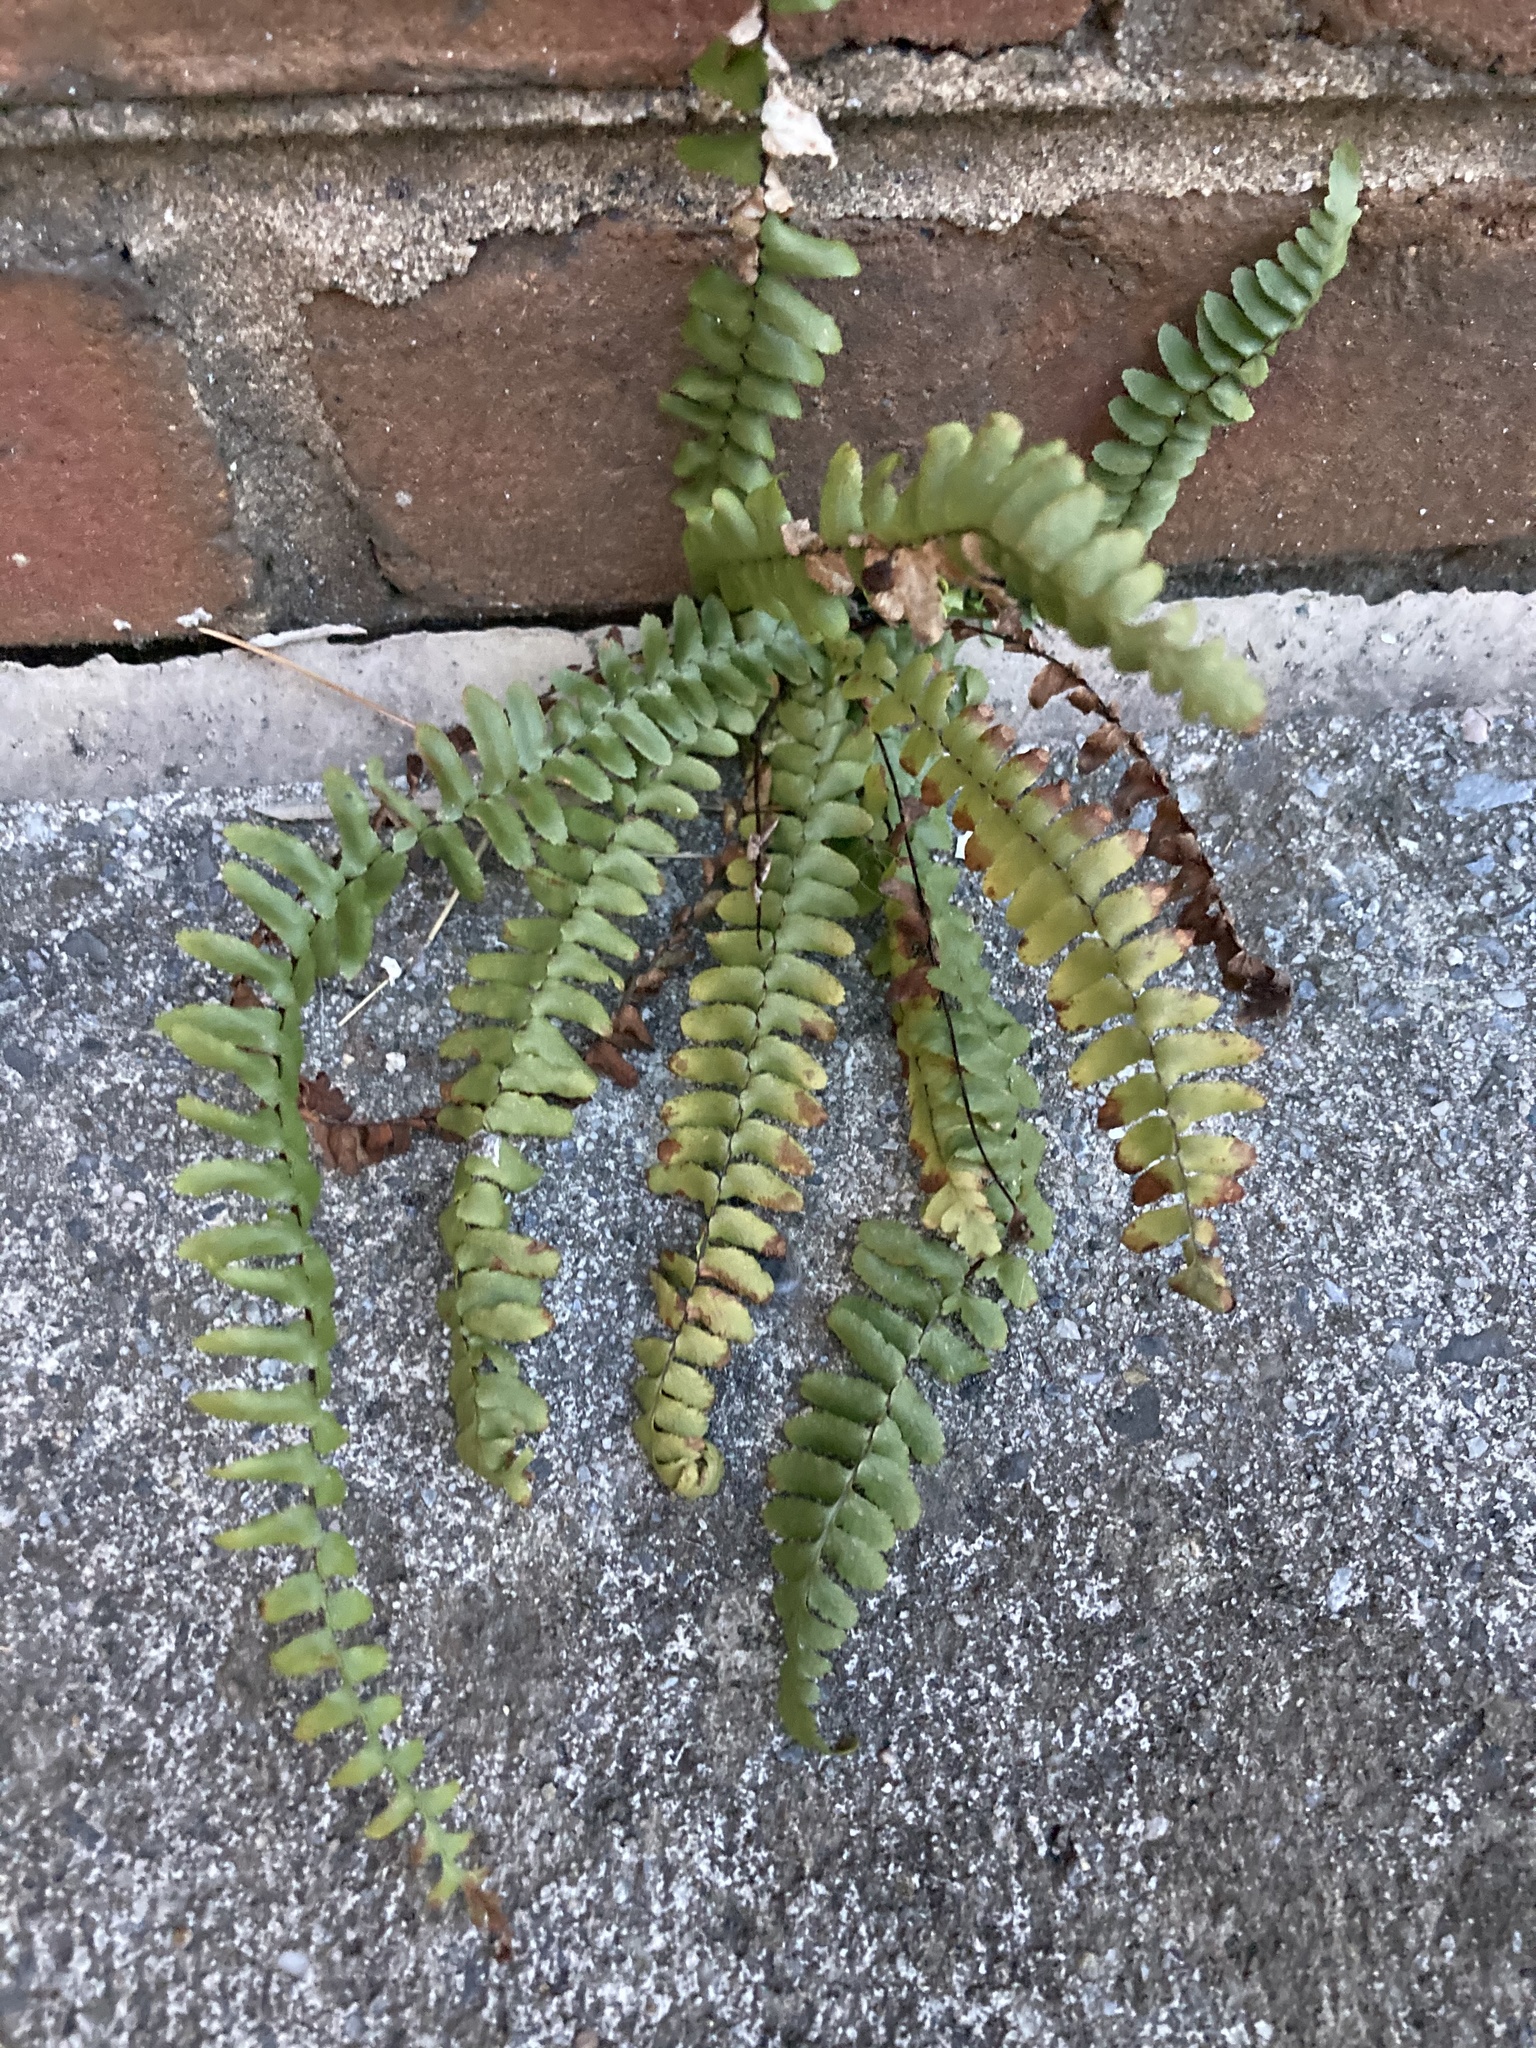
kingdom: Plantae
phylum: Tracheophyta
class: Polypodiopsida
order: Polypodiales
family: Aspleniaceae
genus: Asplenium
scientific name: Asplenium platyneuron
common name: Ebony spleenwort
